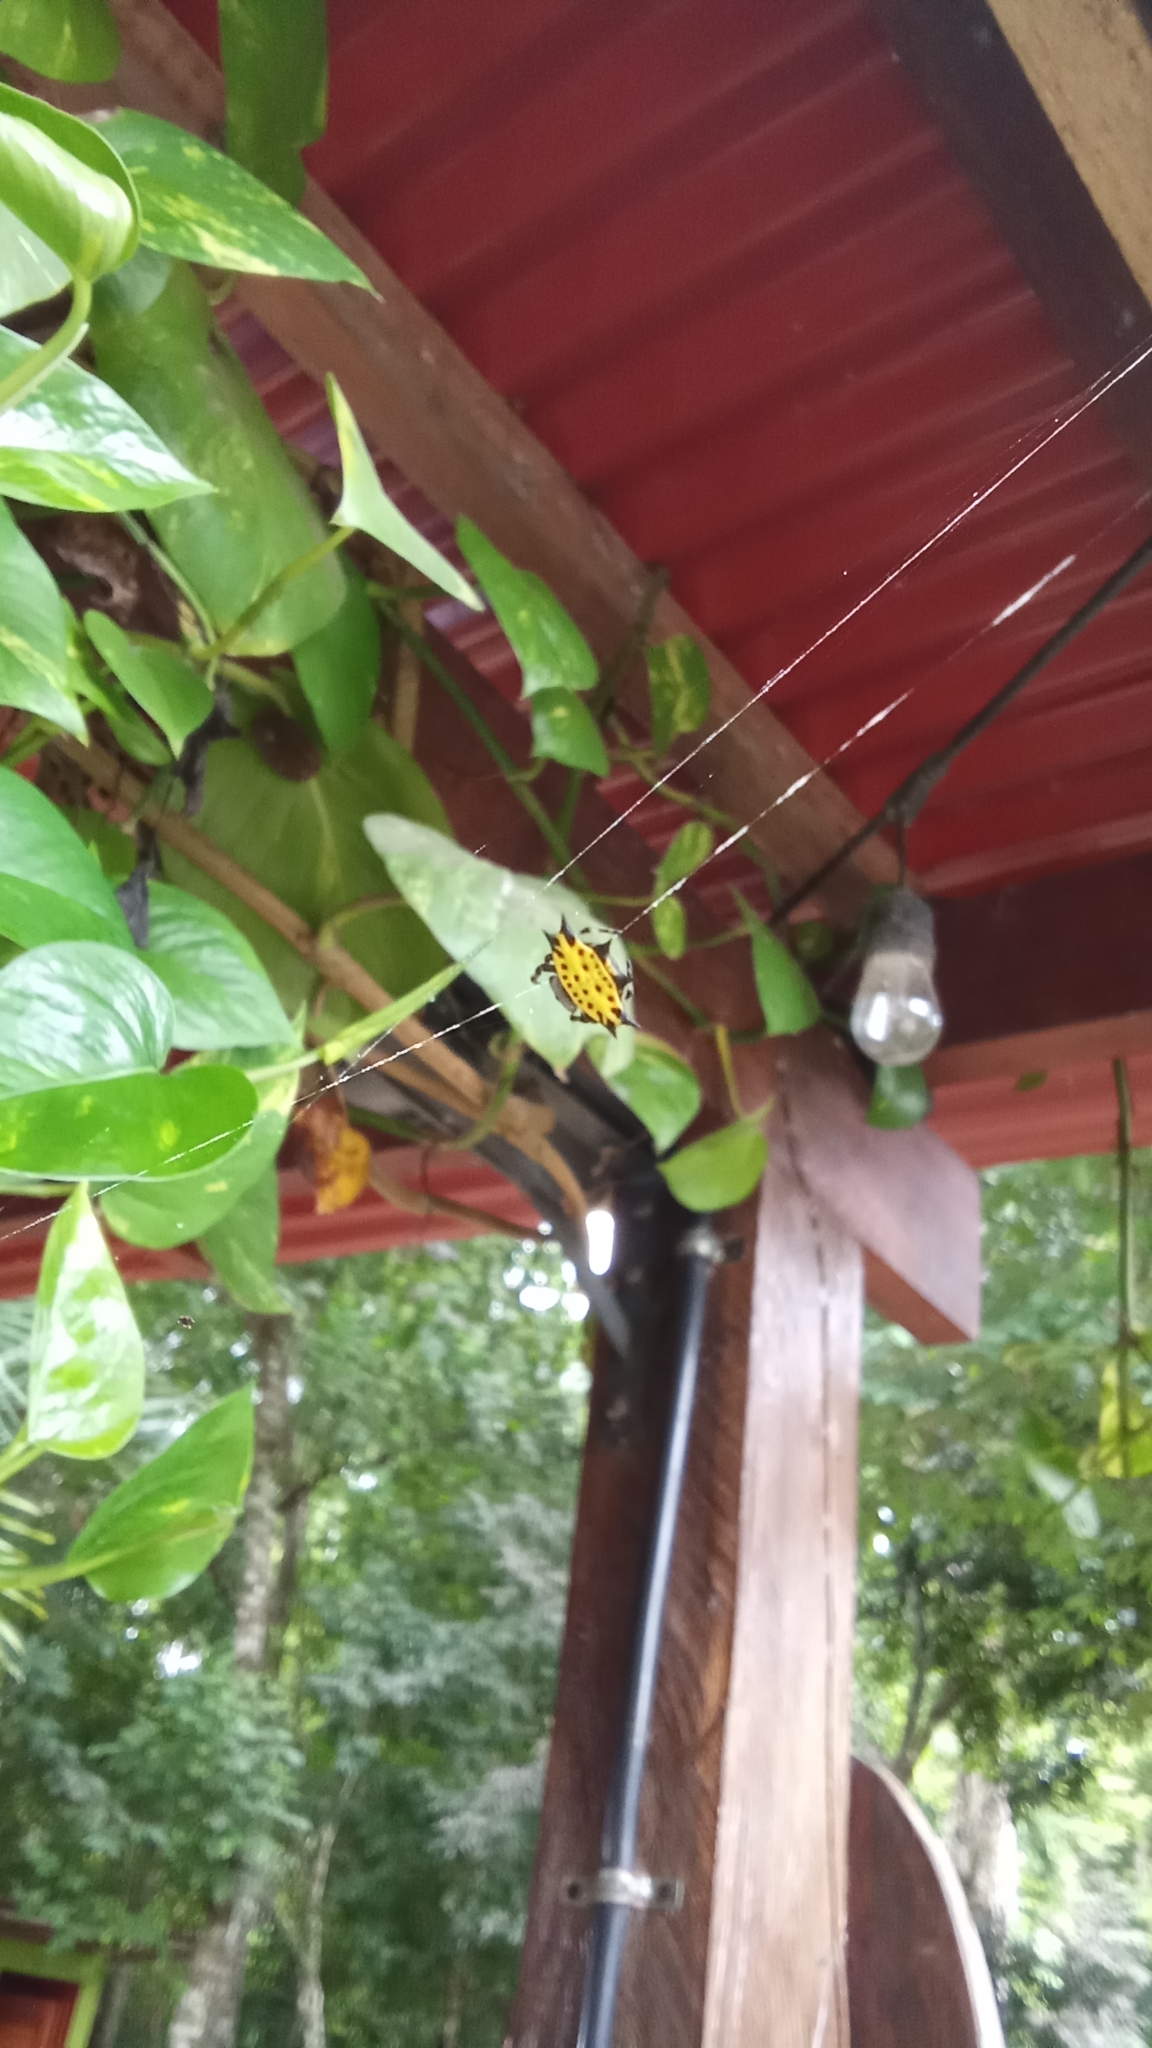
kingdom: Animalia
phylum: Arthropoda
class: Arachnida
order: Araneae
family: Araneidae
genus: Gasteracantha
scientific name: Gasteracantha cancriformis
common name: Orb weavers
